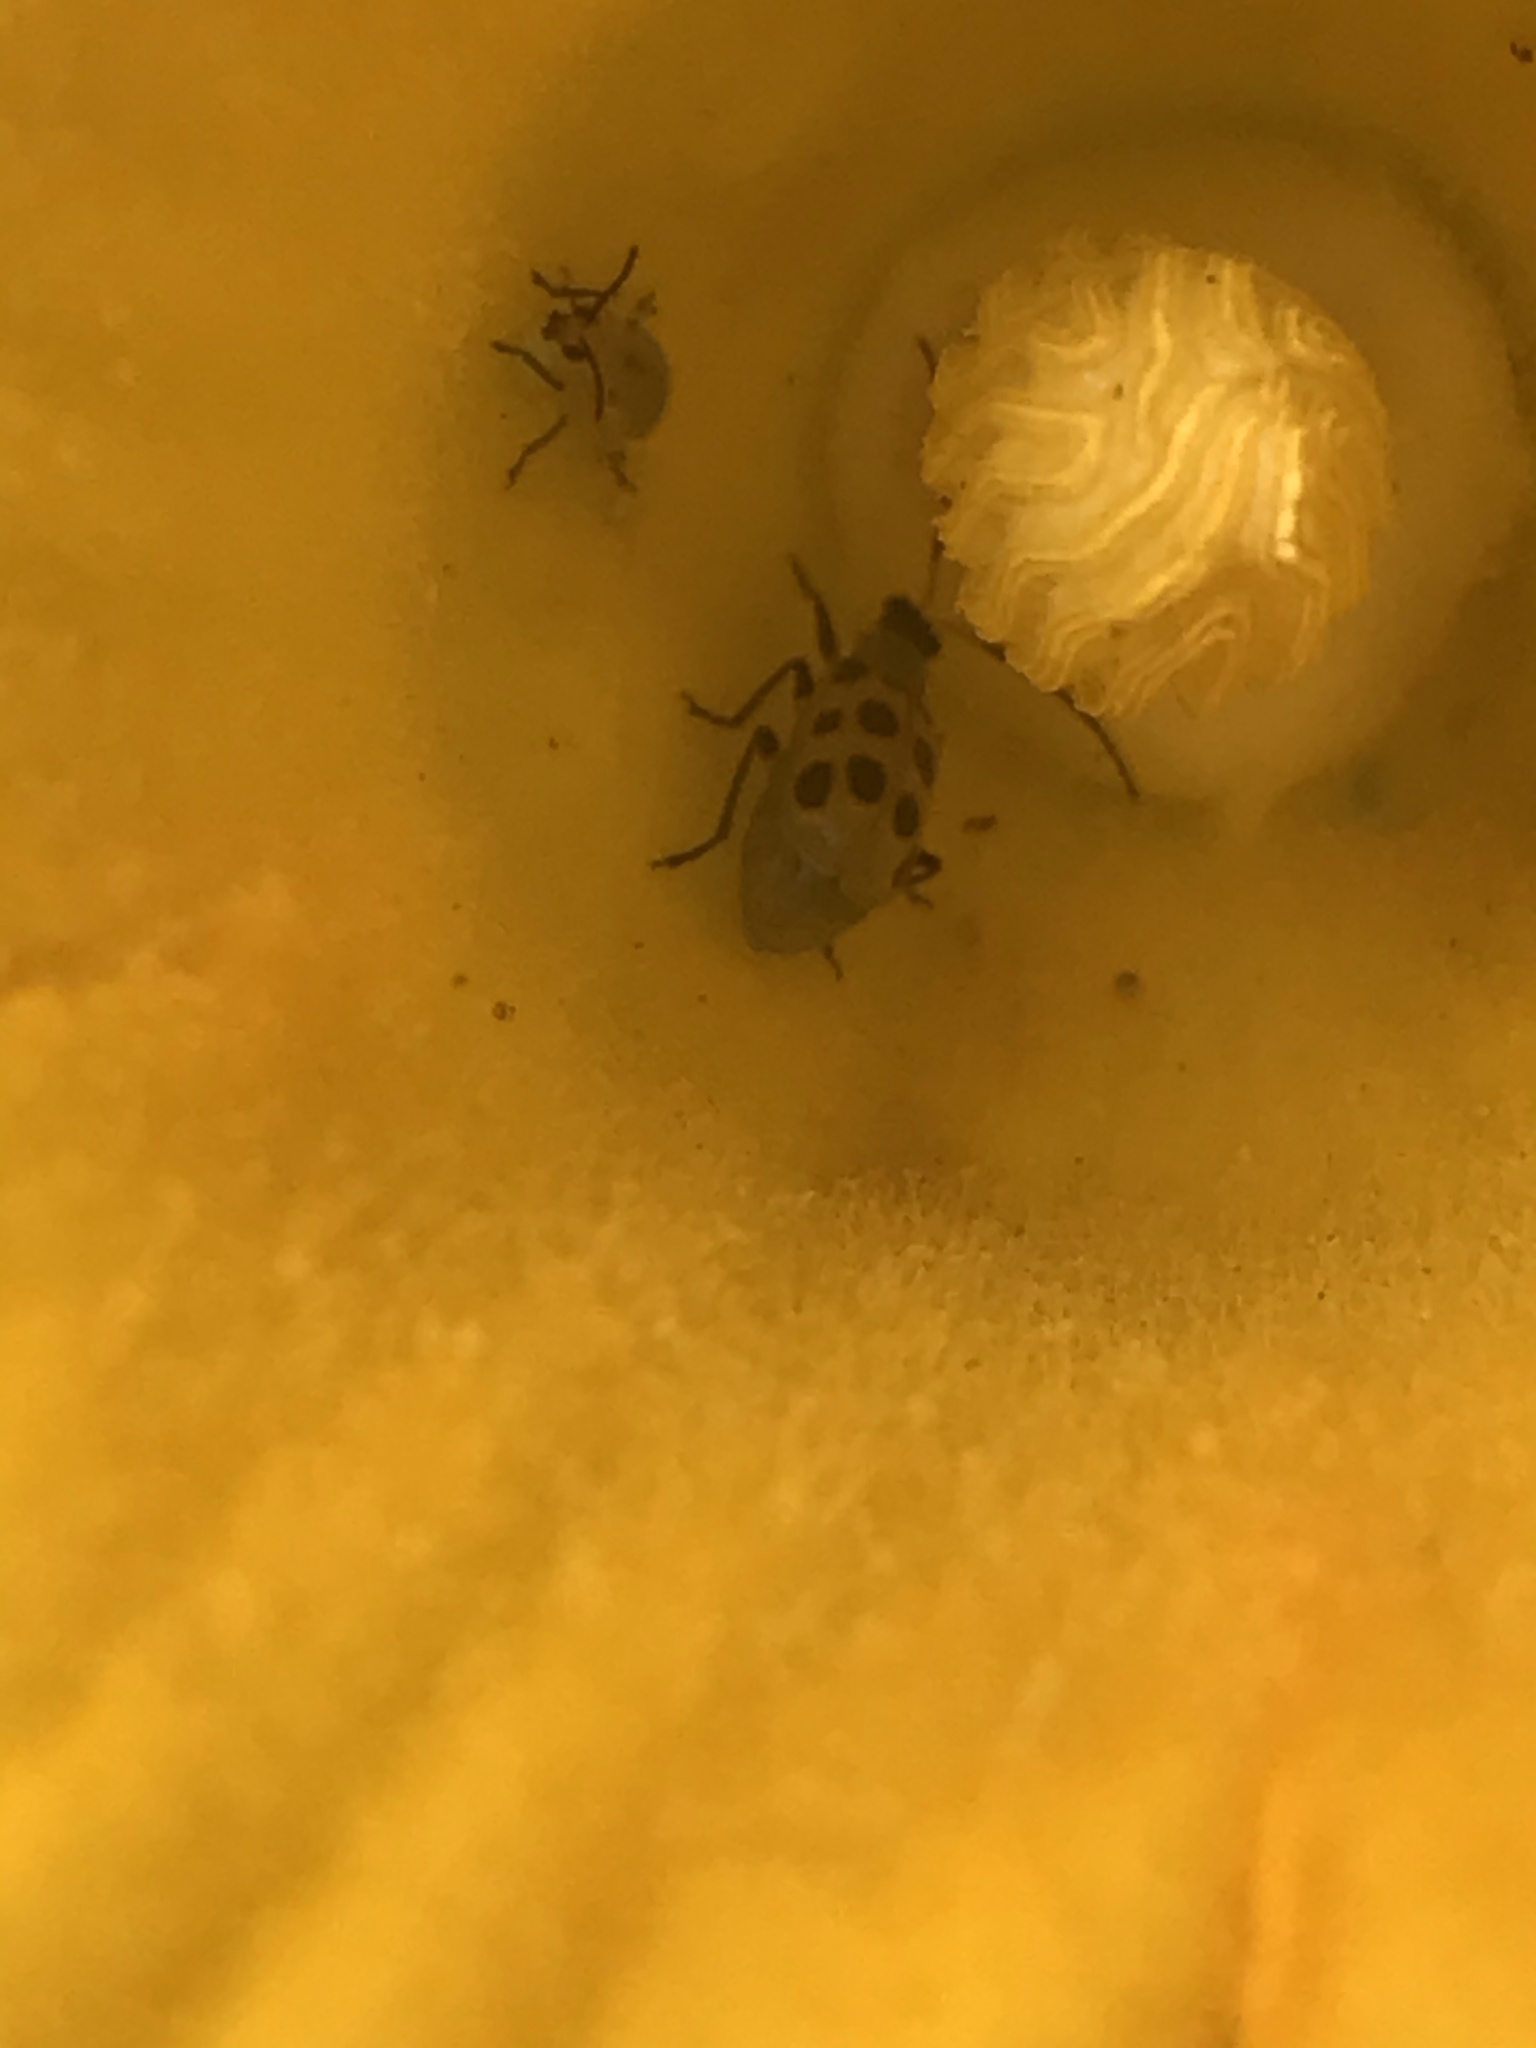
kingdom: Animalia
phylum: Arthropoda
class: Insecta
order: Coleoptera
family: Chrysomelidae
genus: Diabrotica
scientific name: Diabrotica undecimpunctata
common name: Spotted cucumber beetle
